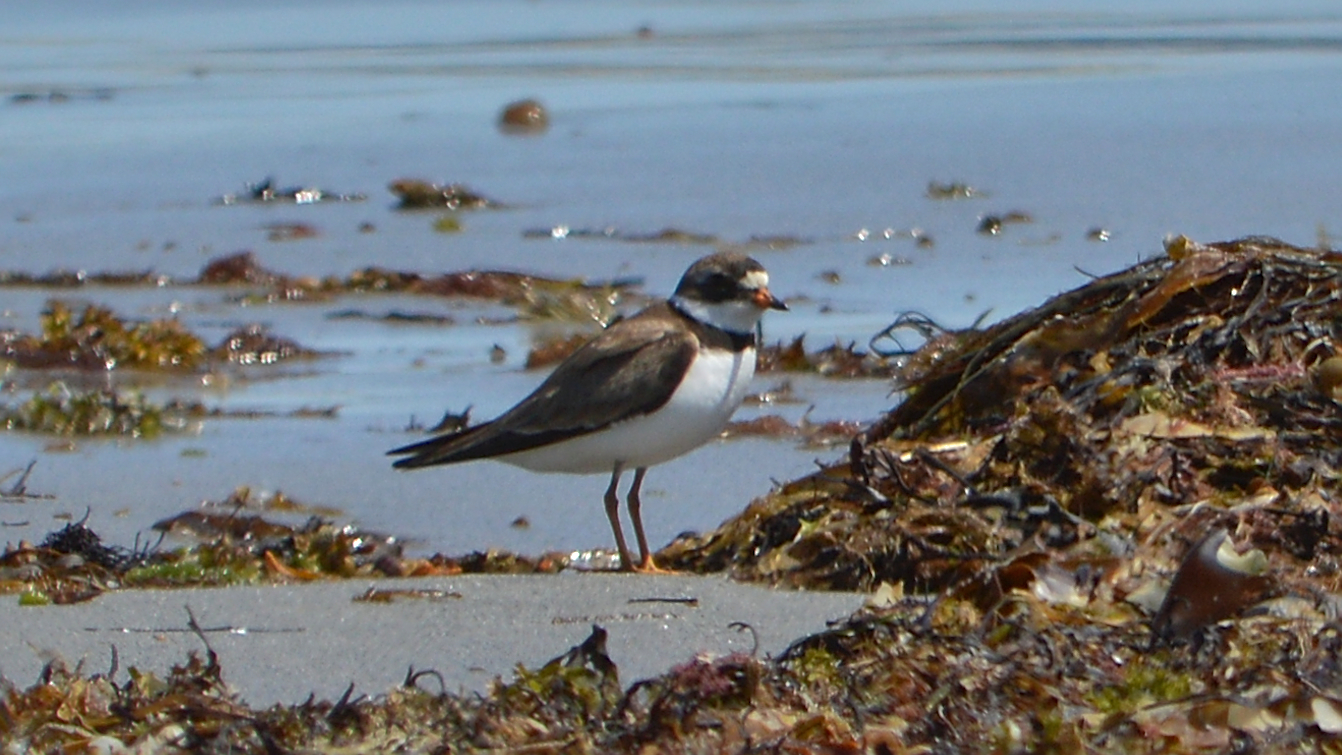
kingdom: Animalia
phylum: Chordata
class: Aves
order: Charadriiformes
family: Charadriidae
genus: Charadrius
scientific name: Charadrius semipalmatus
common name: Semipalmated plover
